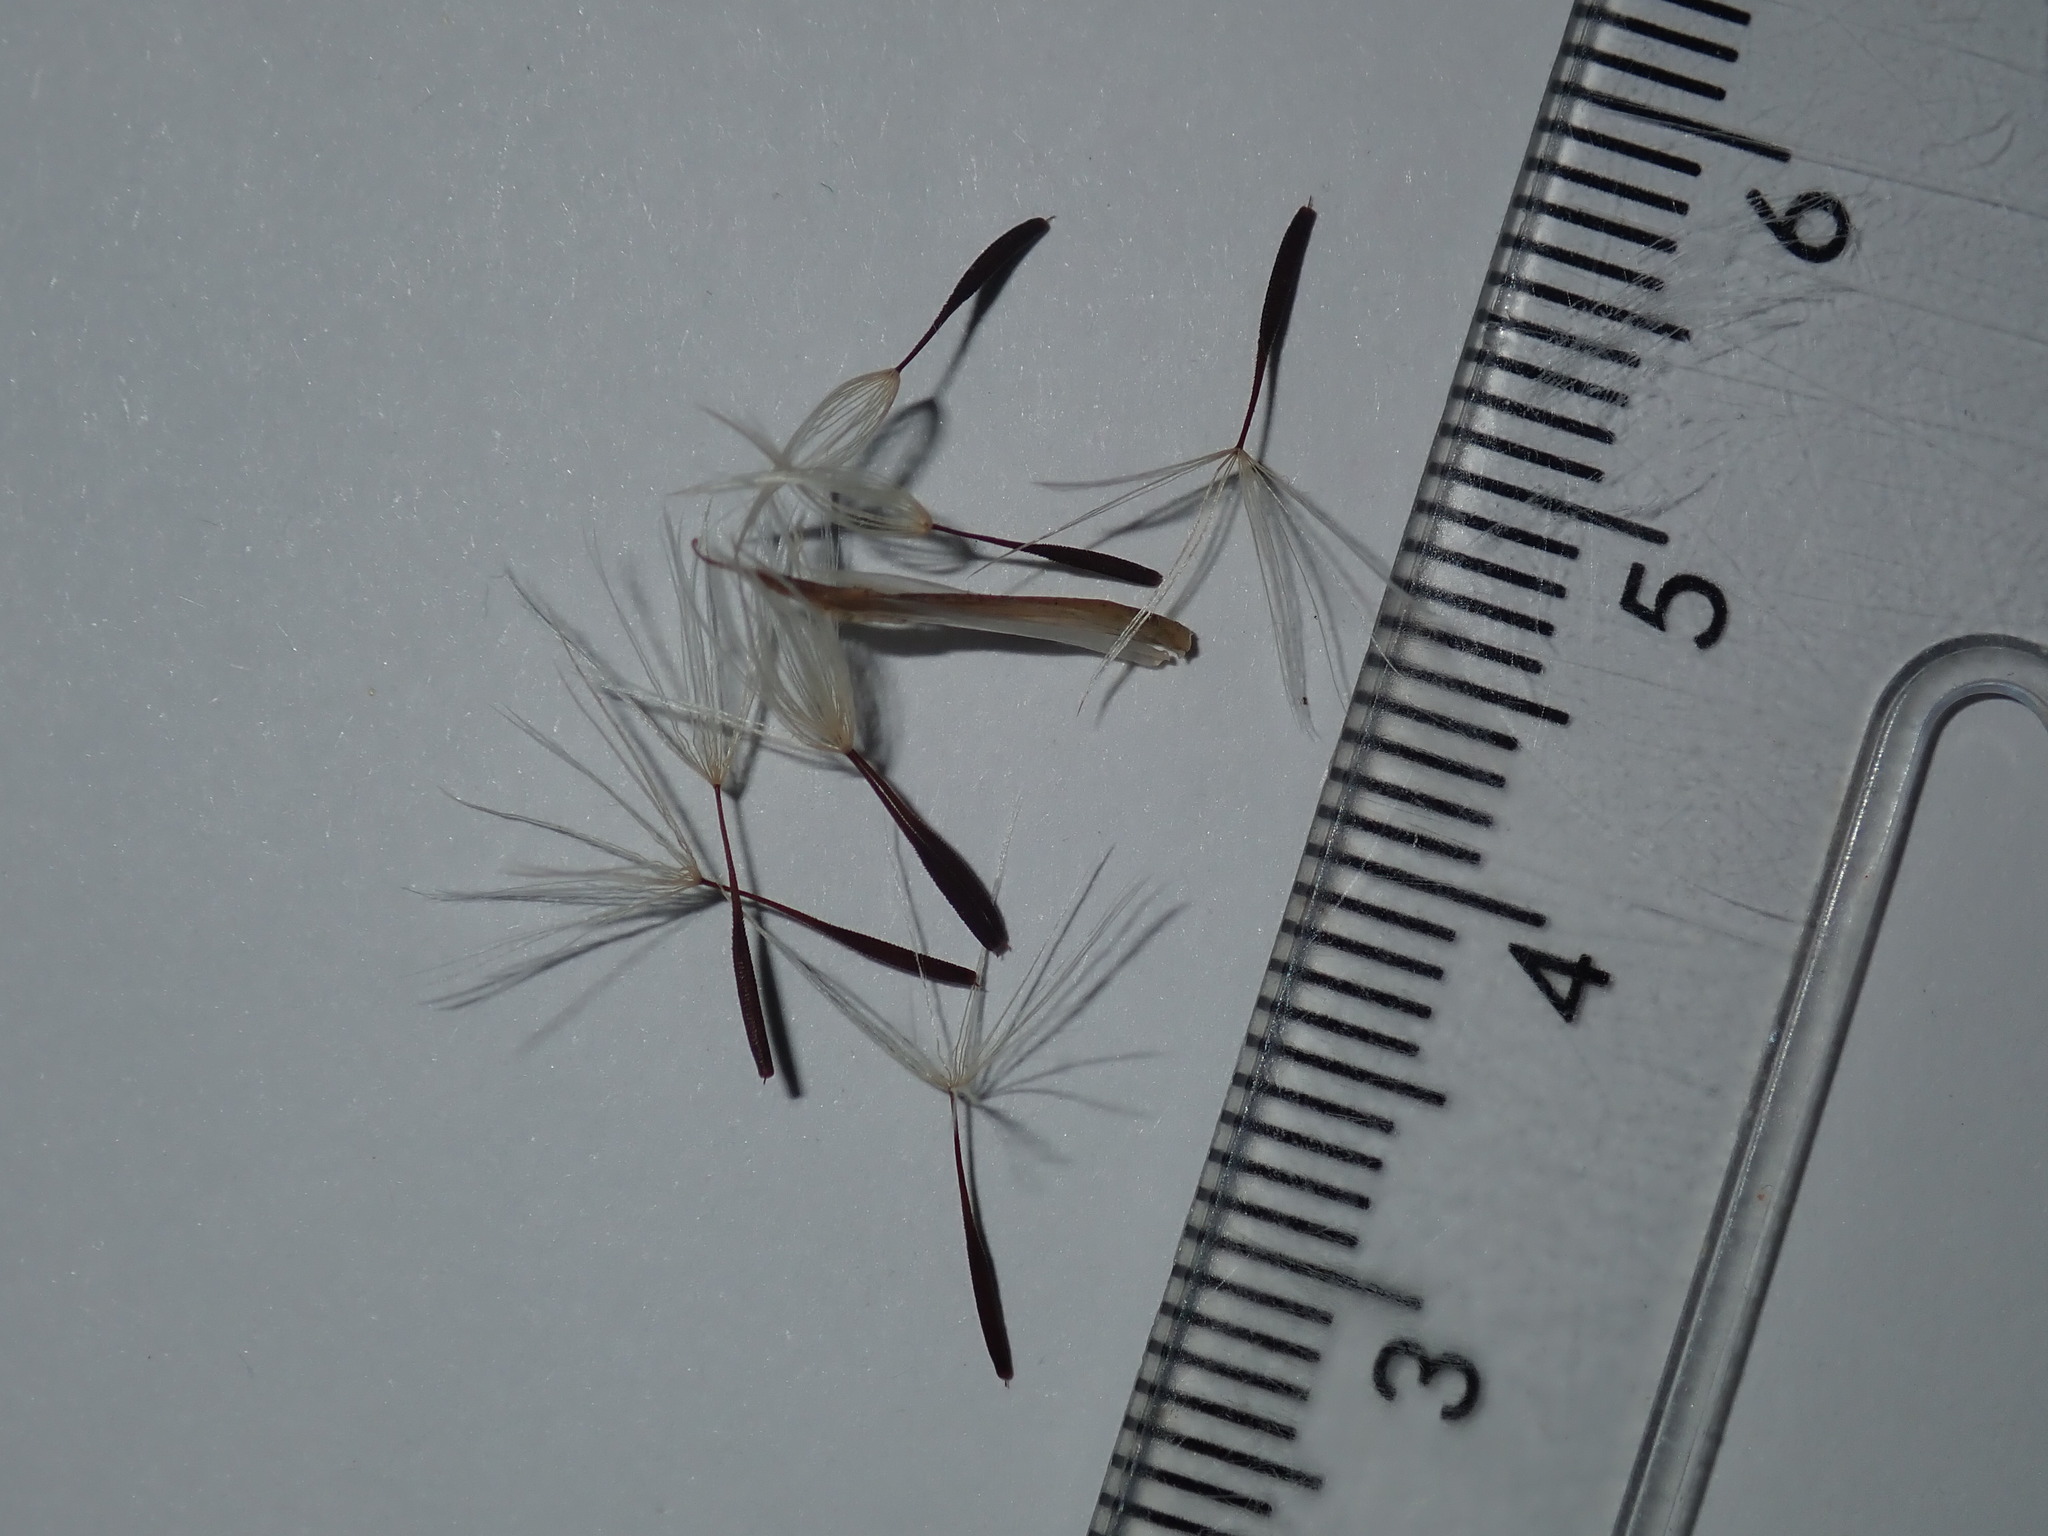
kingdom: Plantae
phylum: Tracheophyta
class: Magnoliopsida
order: Asterales
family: Asteraceae
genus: Hypochaeris
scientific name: Hypochaeris albiflora
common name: White flatweed
